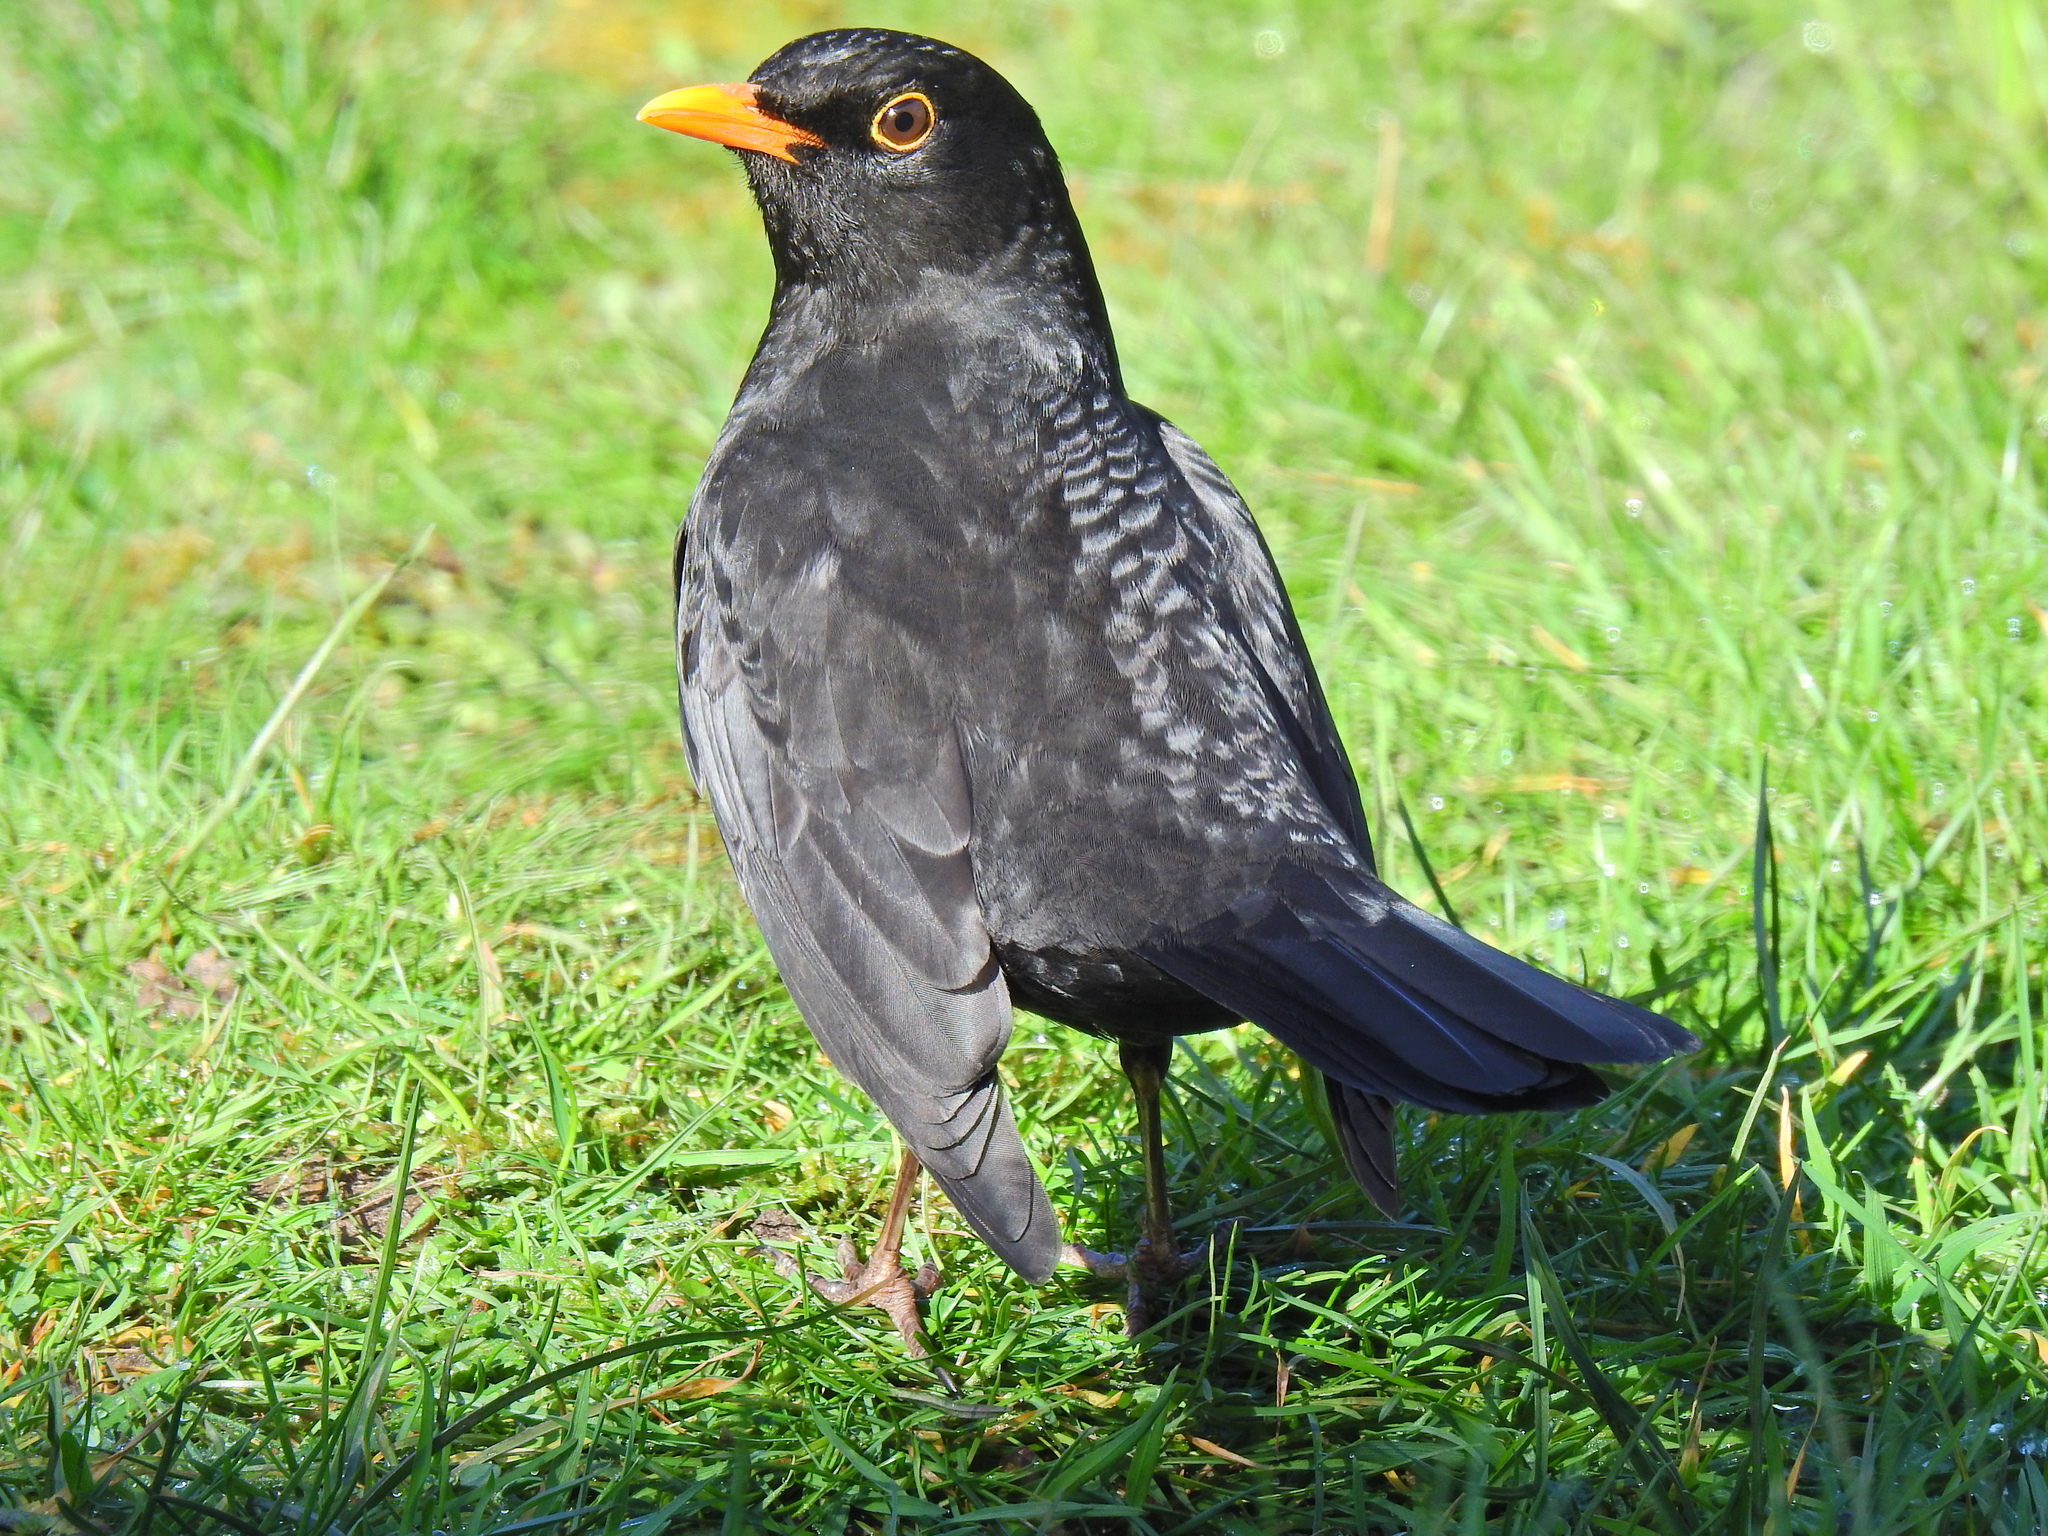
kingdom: Animalia
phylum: Chordata
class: Aves
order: Passeriformes
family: Turdidae
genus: Turdus
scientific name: Turdus merula
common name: Common blackbird
